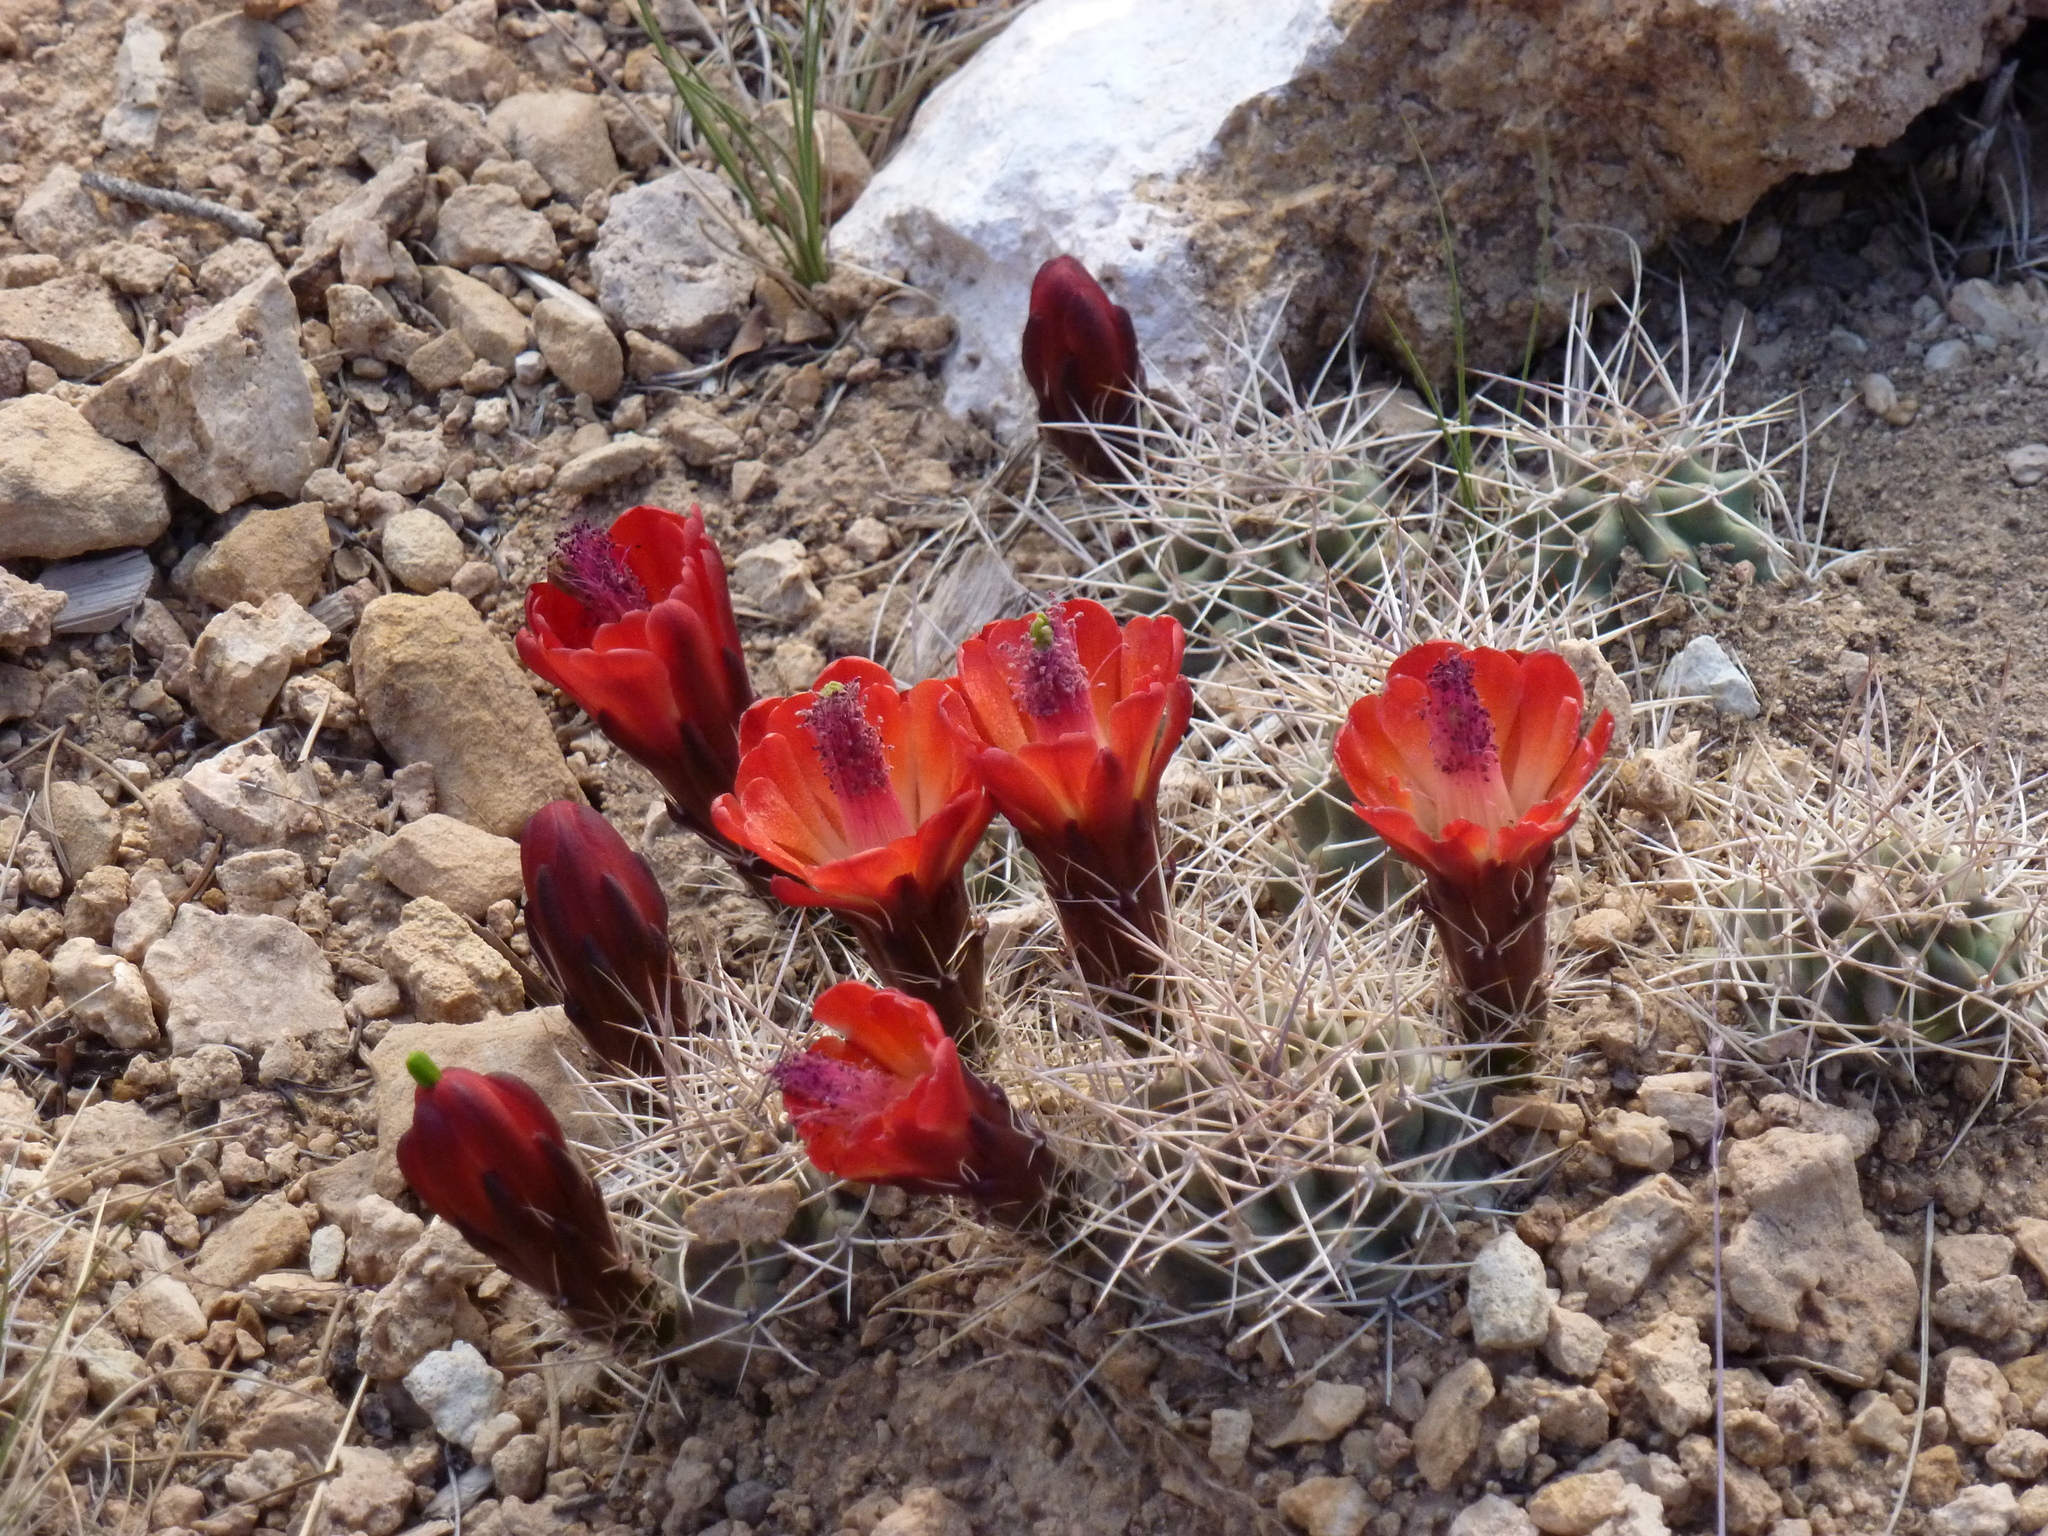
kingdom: Plantae
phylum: Tracheophyta
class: Magnoliopsida
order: Caryophyllales
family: Cactaceae
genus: Echinocereus
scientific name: Echinocereus triglochidiatus
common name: Claretcup hedgehog
